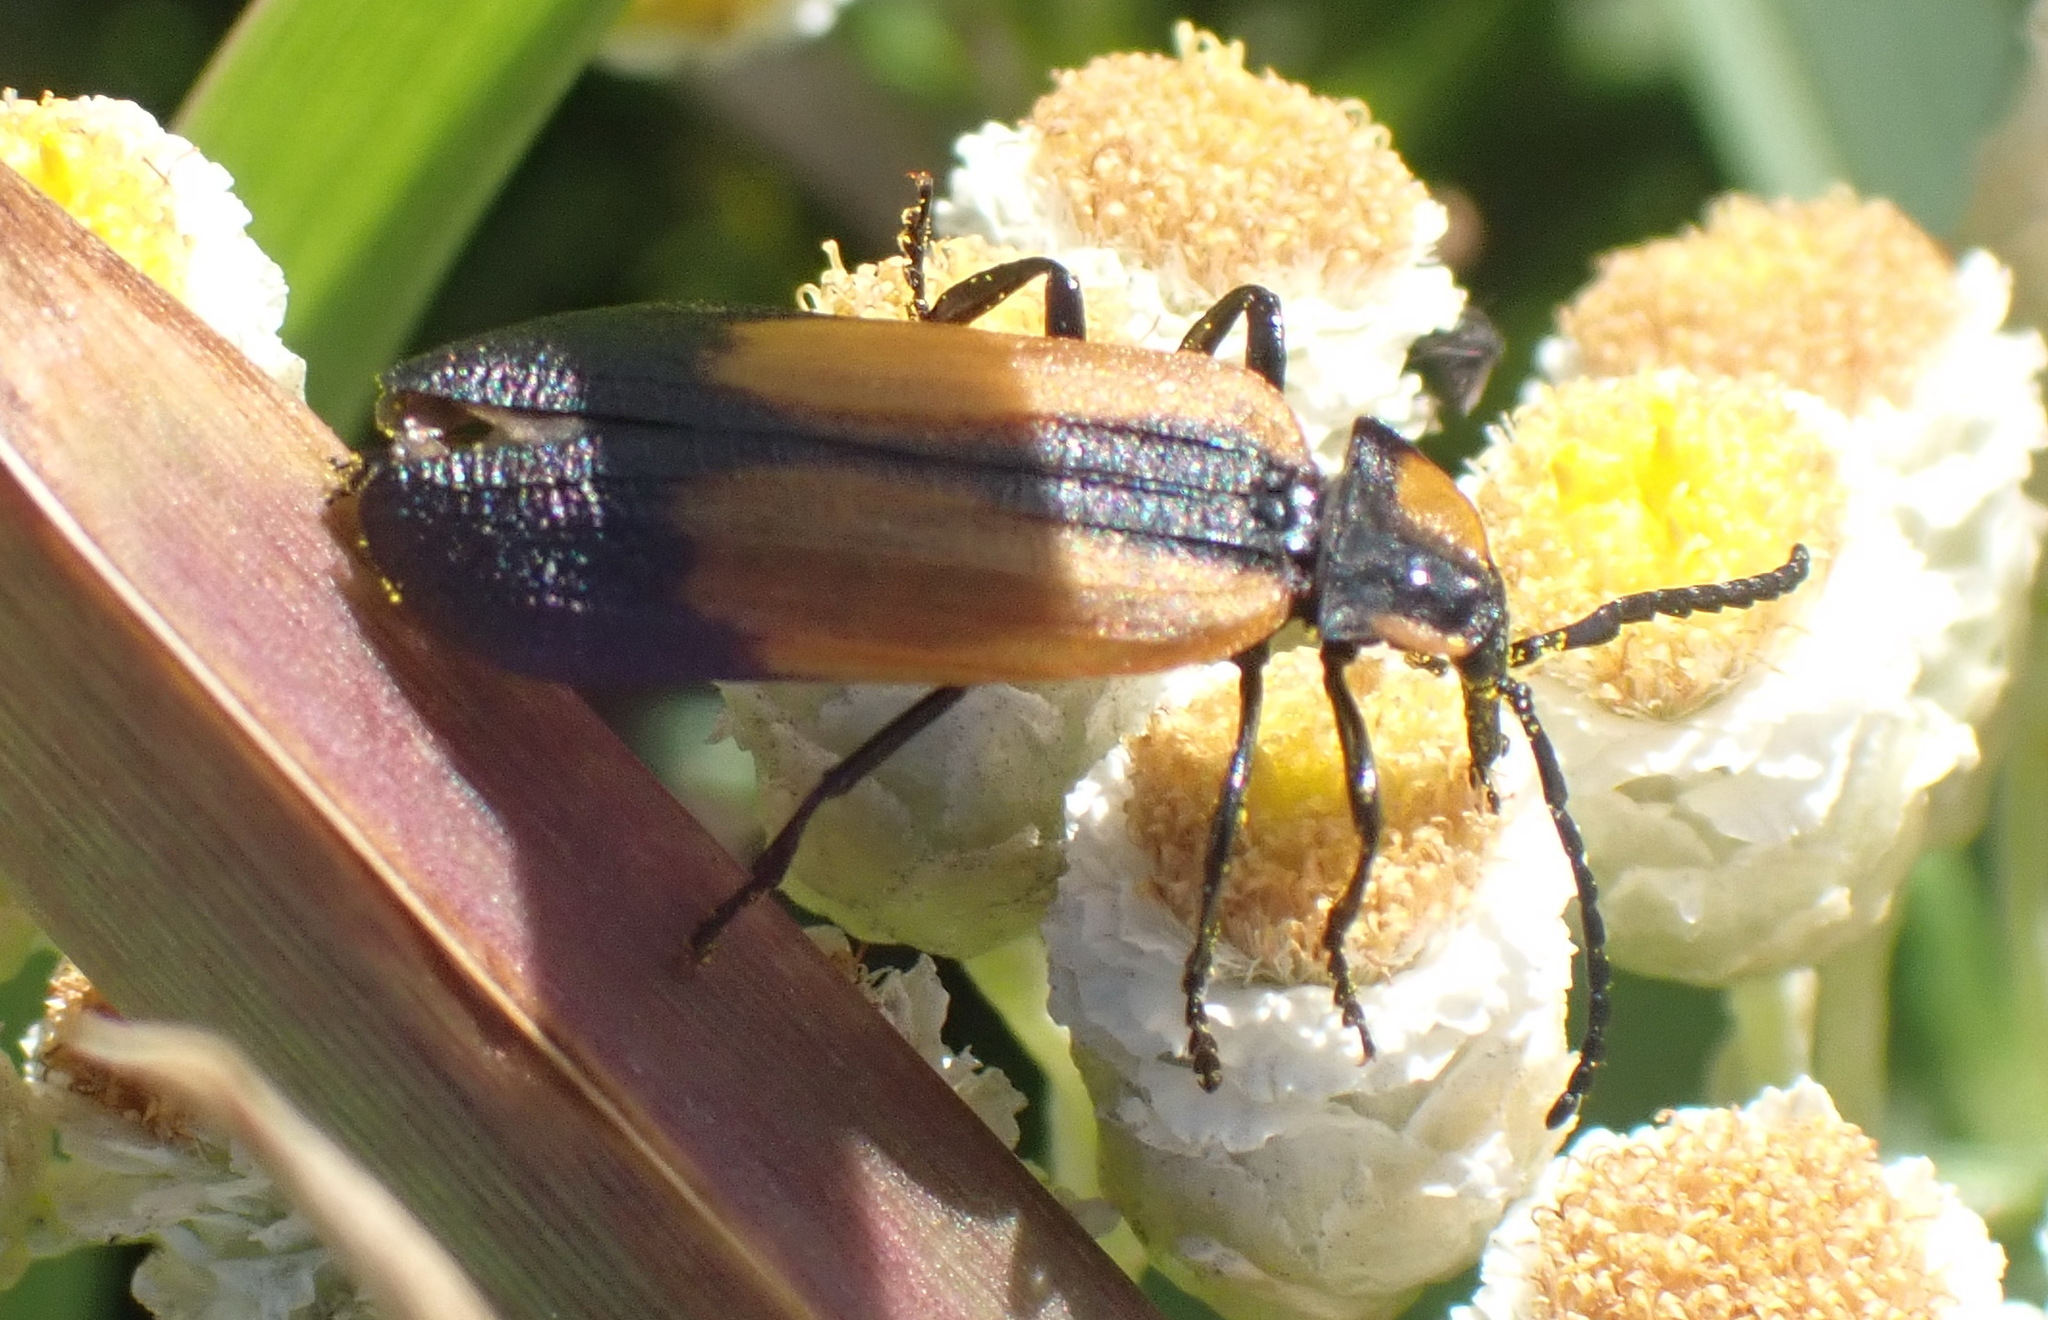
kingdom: Animalia
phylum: Arthropoda
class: Insecta
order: Coleoptera
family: Lycidae
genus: Lycus
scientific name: Lycus
